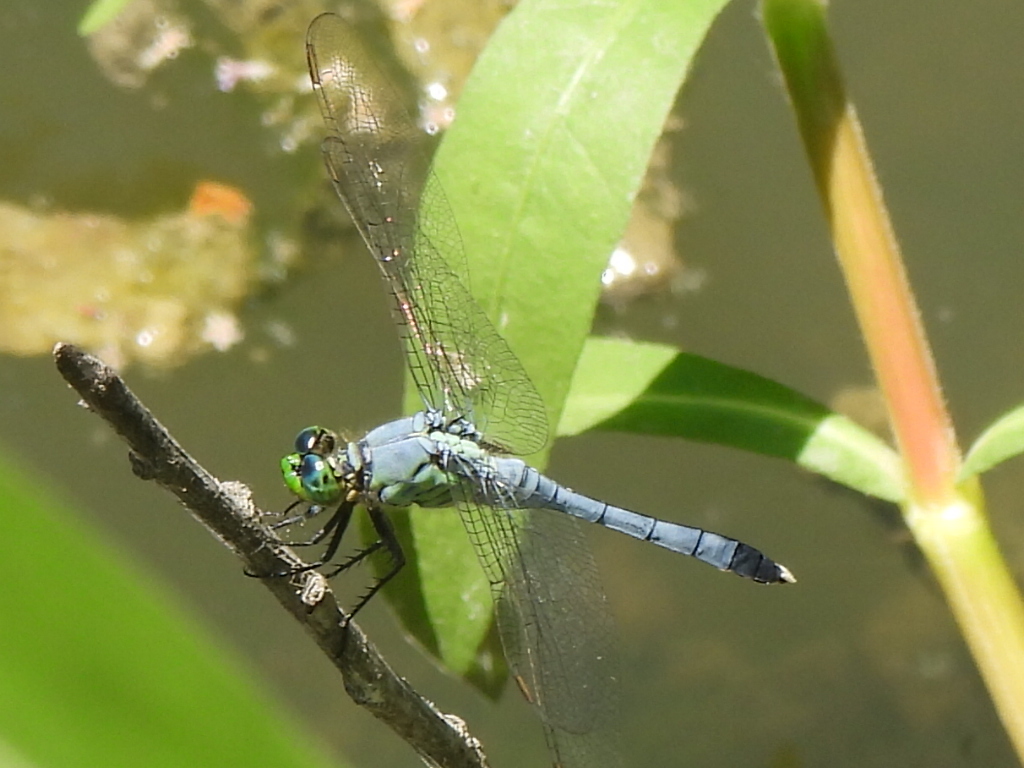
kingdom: Animalia
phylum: Arthropoda
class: Insecta
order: Odonata
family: Libellulidae
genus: Erythemis
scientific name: Erythemis simplicicollis
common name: Eastern pondhawk
